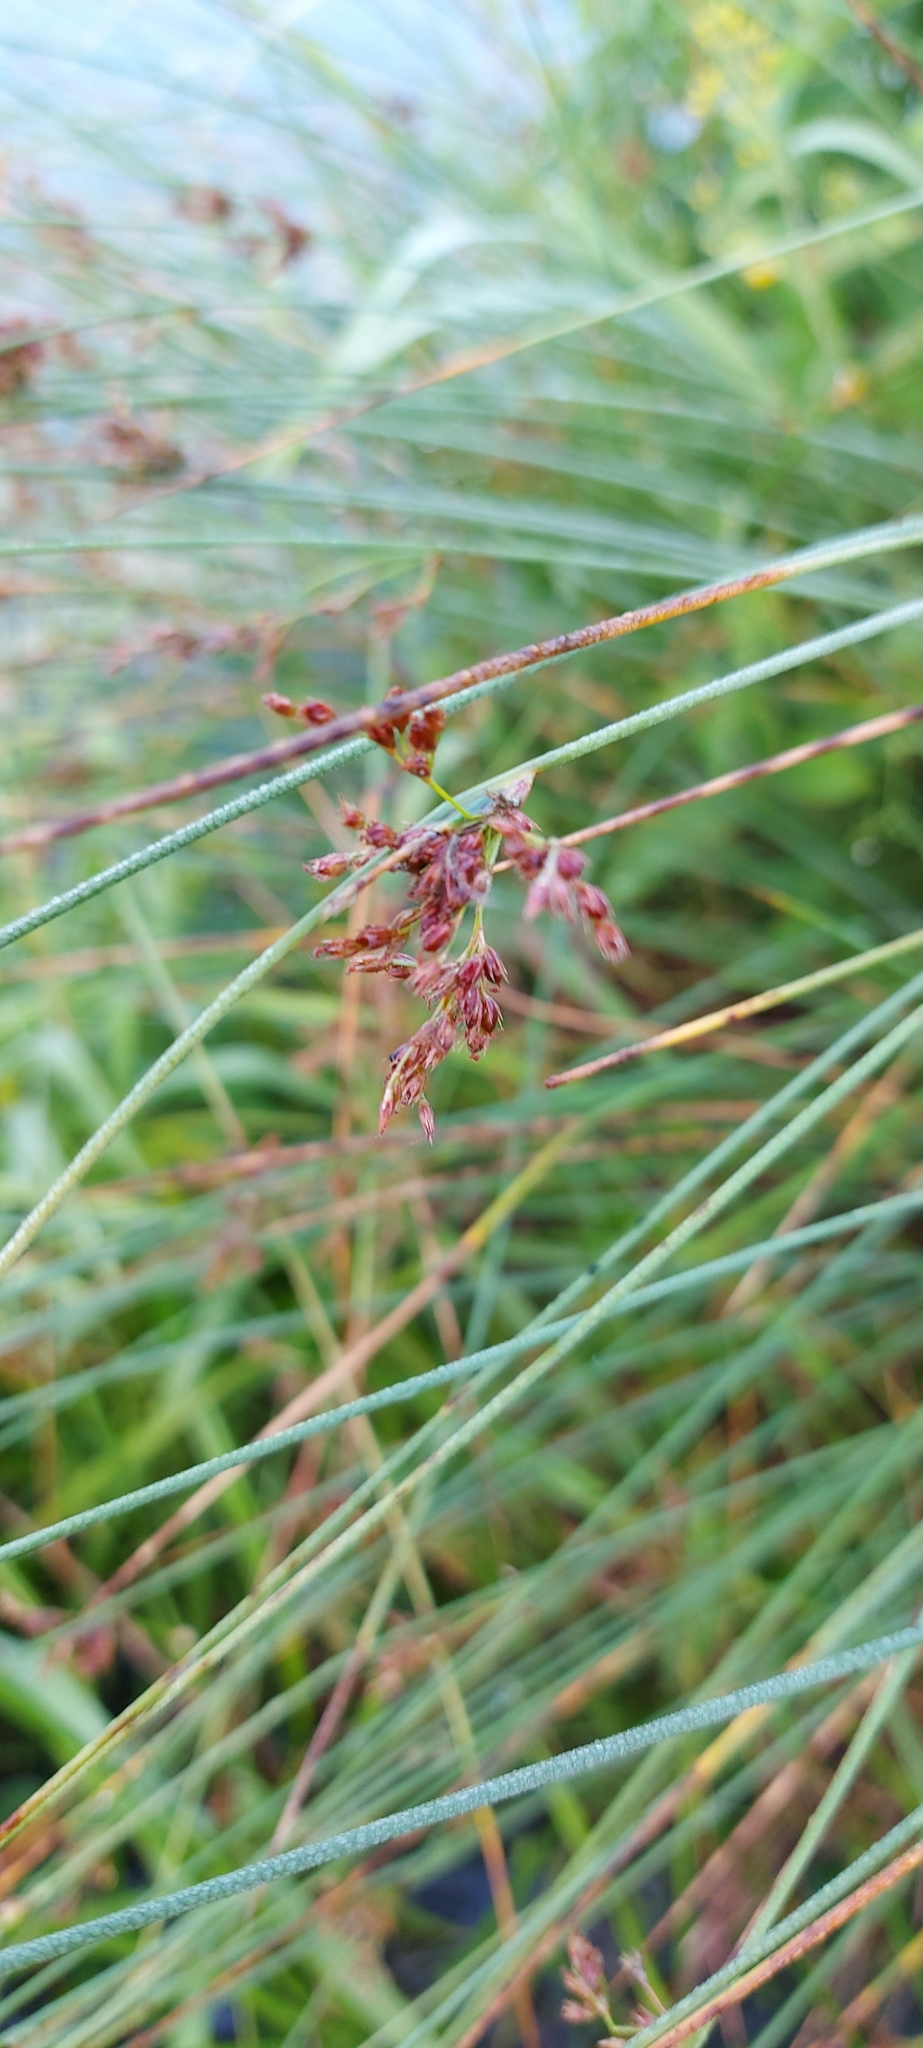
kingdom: Plantae
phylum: Tracheophyta
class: Liliopsida
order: Poales
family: Juncaceae
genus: Juncus
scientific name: Juncus inflexus
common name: Hard rush
